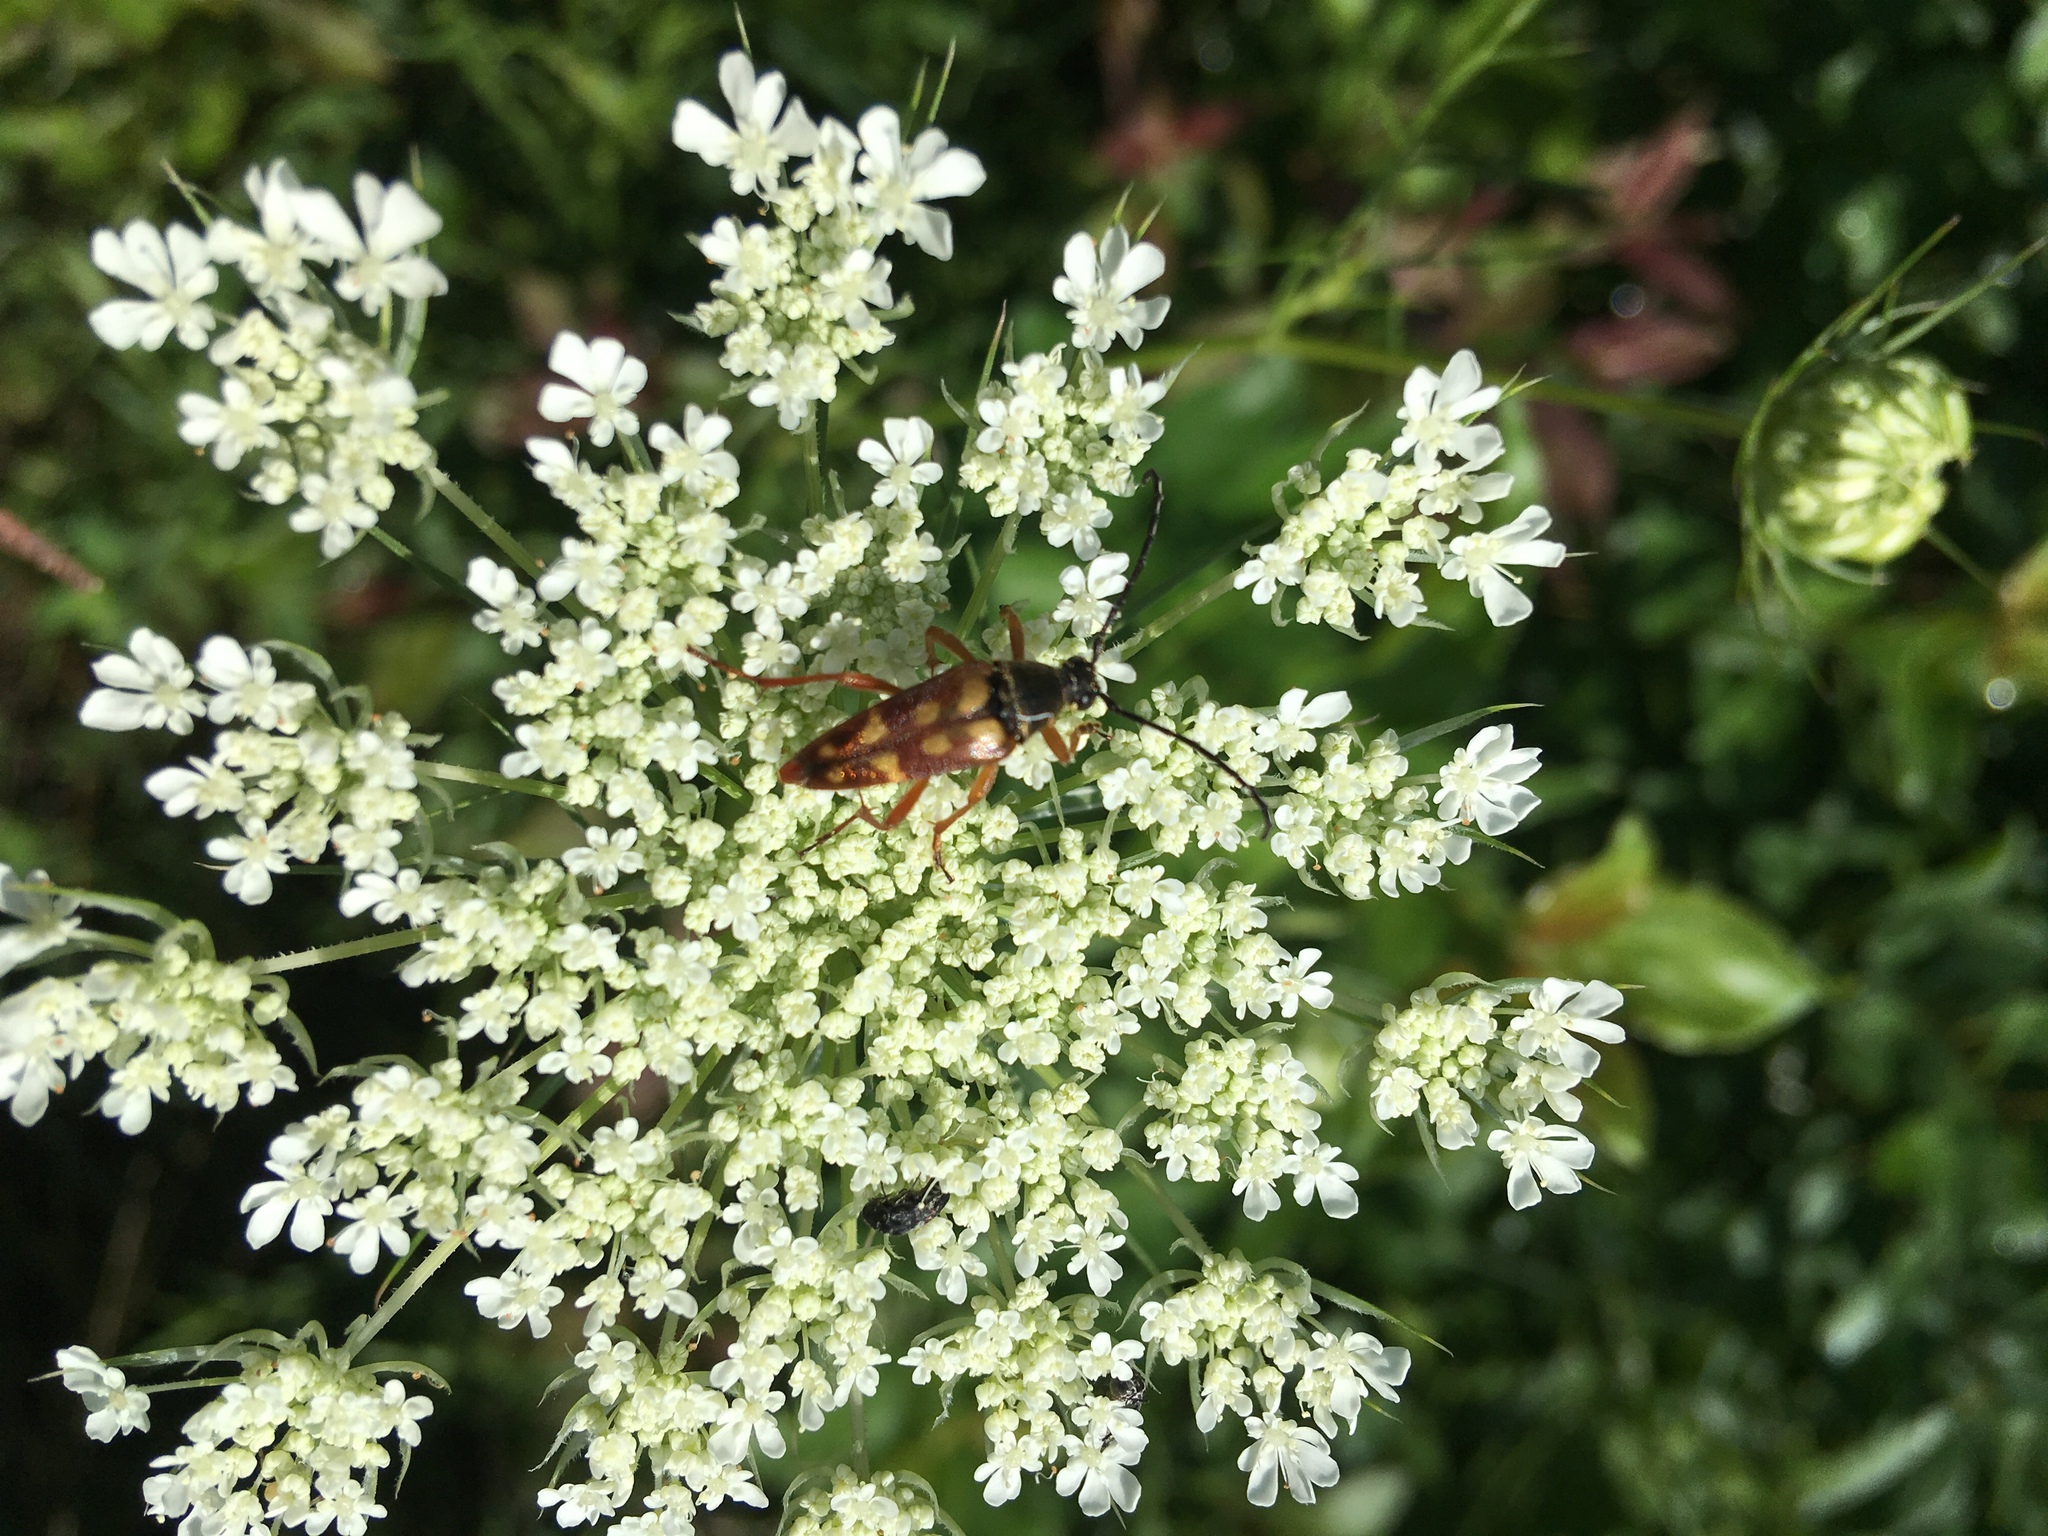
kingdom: Animalia
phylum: Arthropoda
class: Insecta
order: Coleoptera
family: Cerambycidae
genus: Typocerus
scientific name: Typocerus velutinus
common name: Banded longhorn beetle
